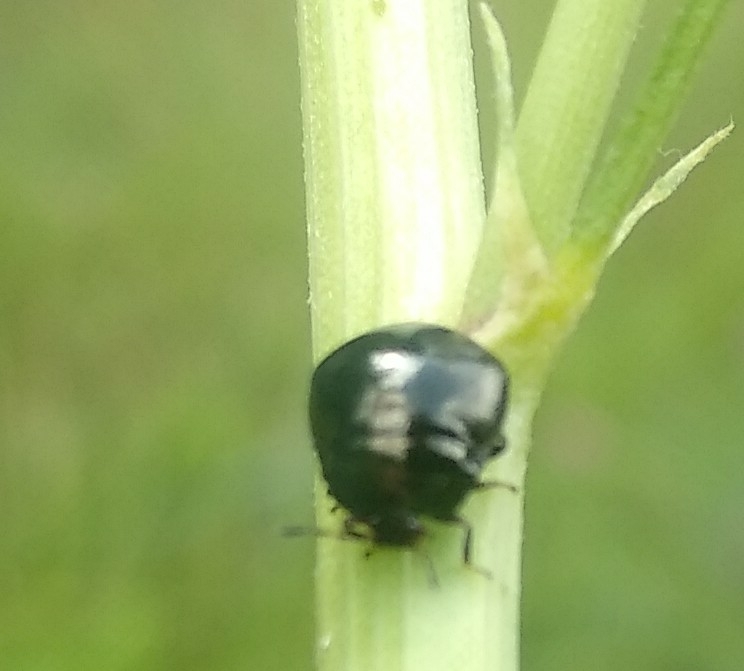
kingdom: Animalia
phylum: Arthropoda
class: Insecta
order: Hemiptera
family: Plataspidae
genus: Coptosoma
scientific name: Coptosoma scutellatum
